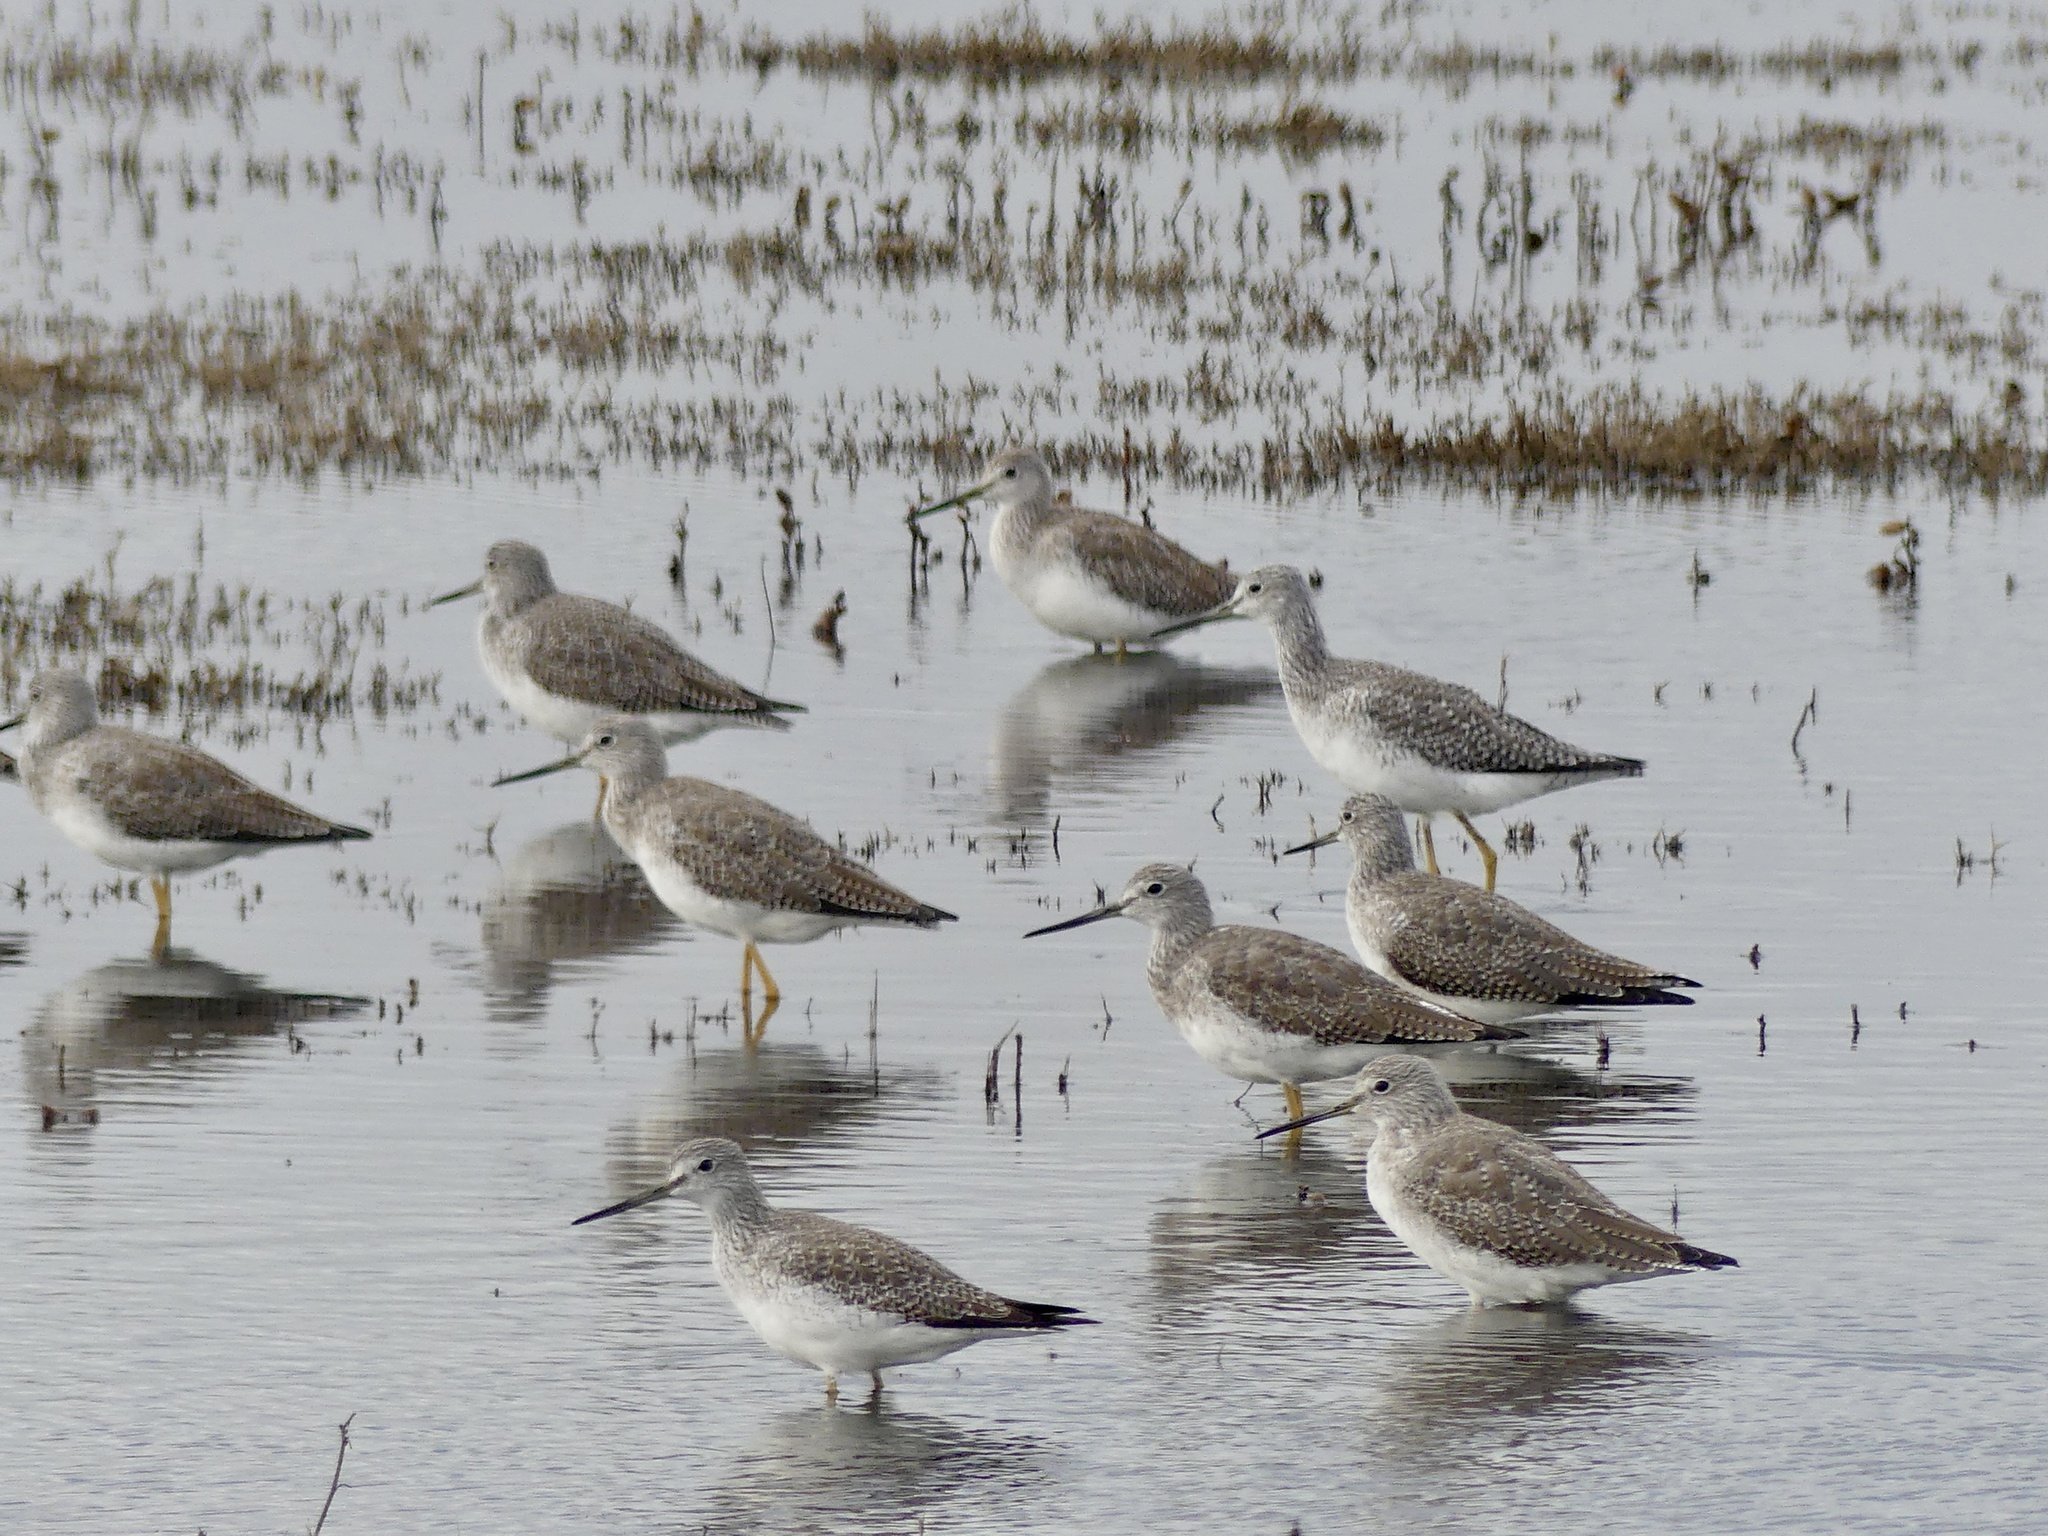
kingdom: Animalia
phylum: Chordata
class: Aves
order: Charadriiformes
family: Scolopacidae
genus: Tringa
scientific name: Tringa melanoleuca
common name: Greater yellowlegs
